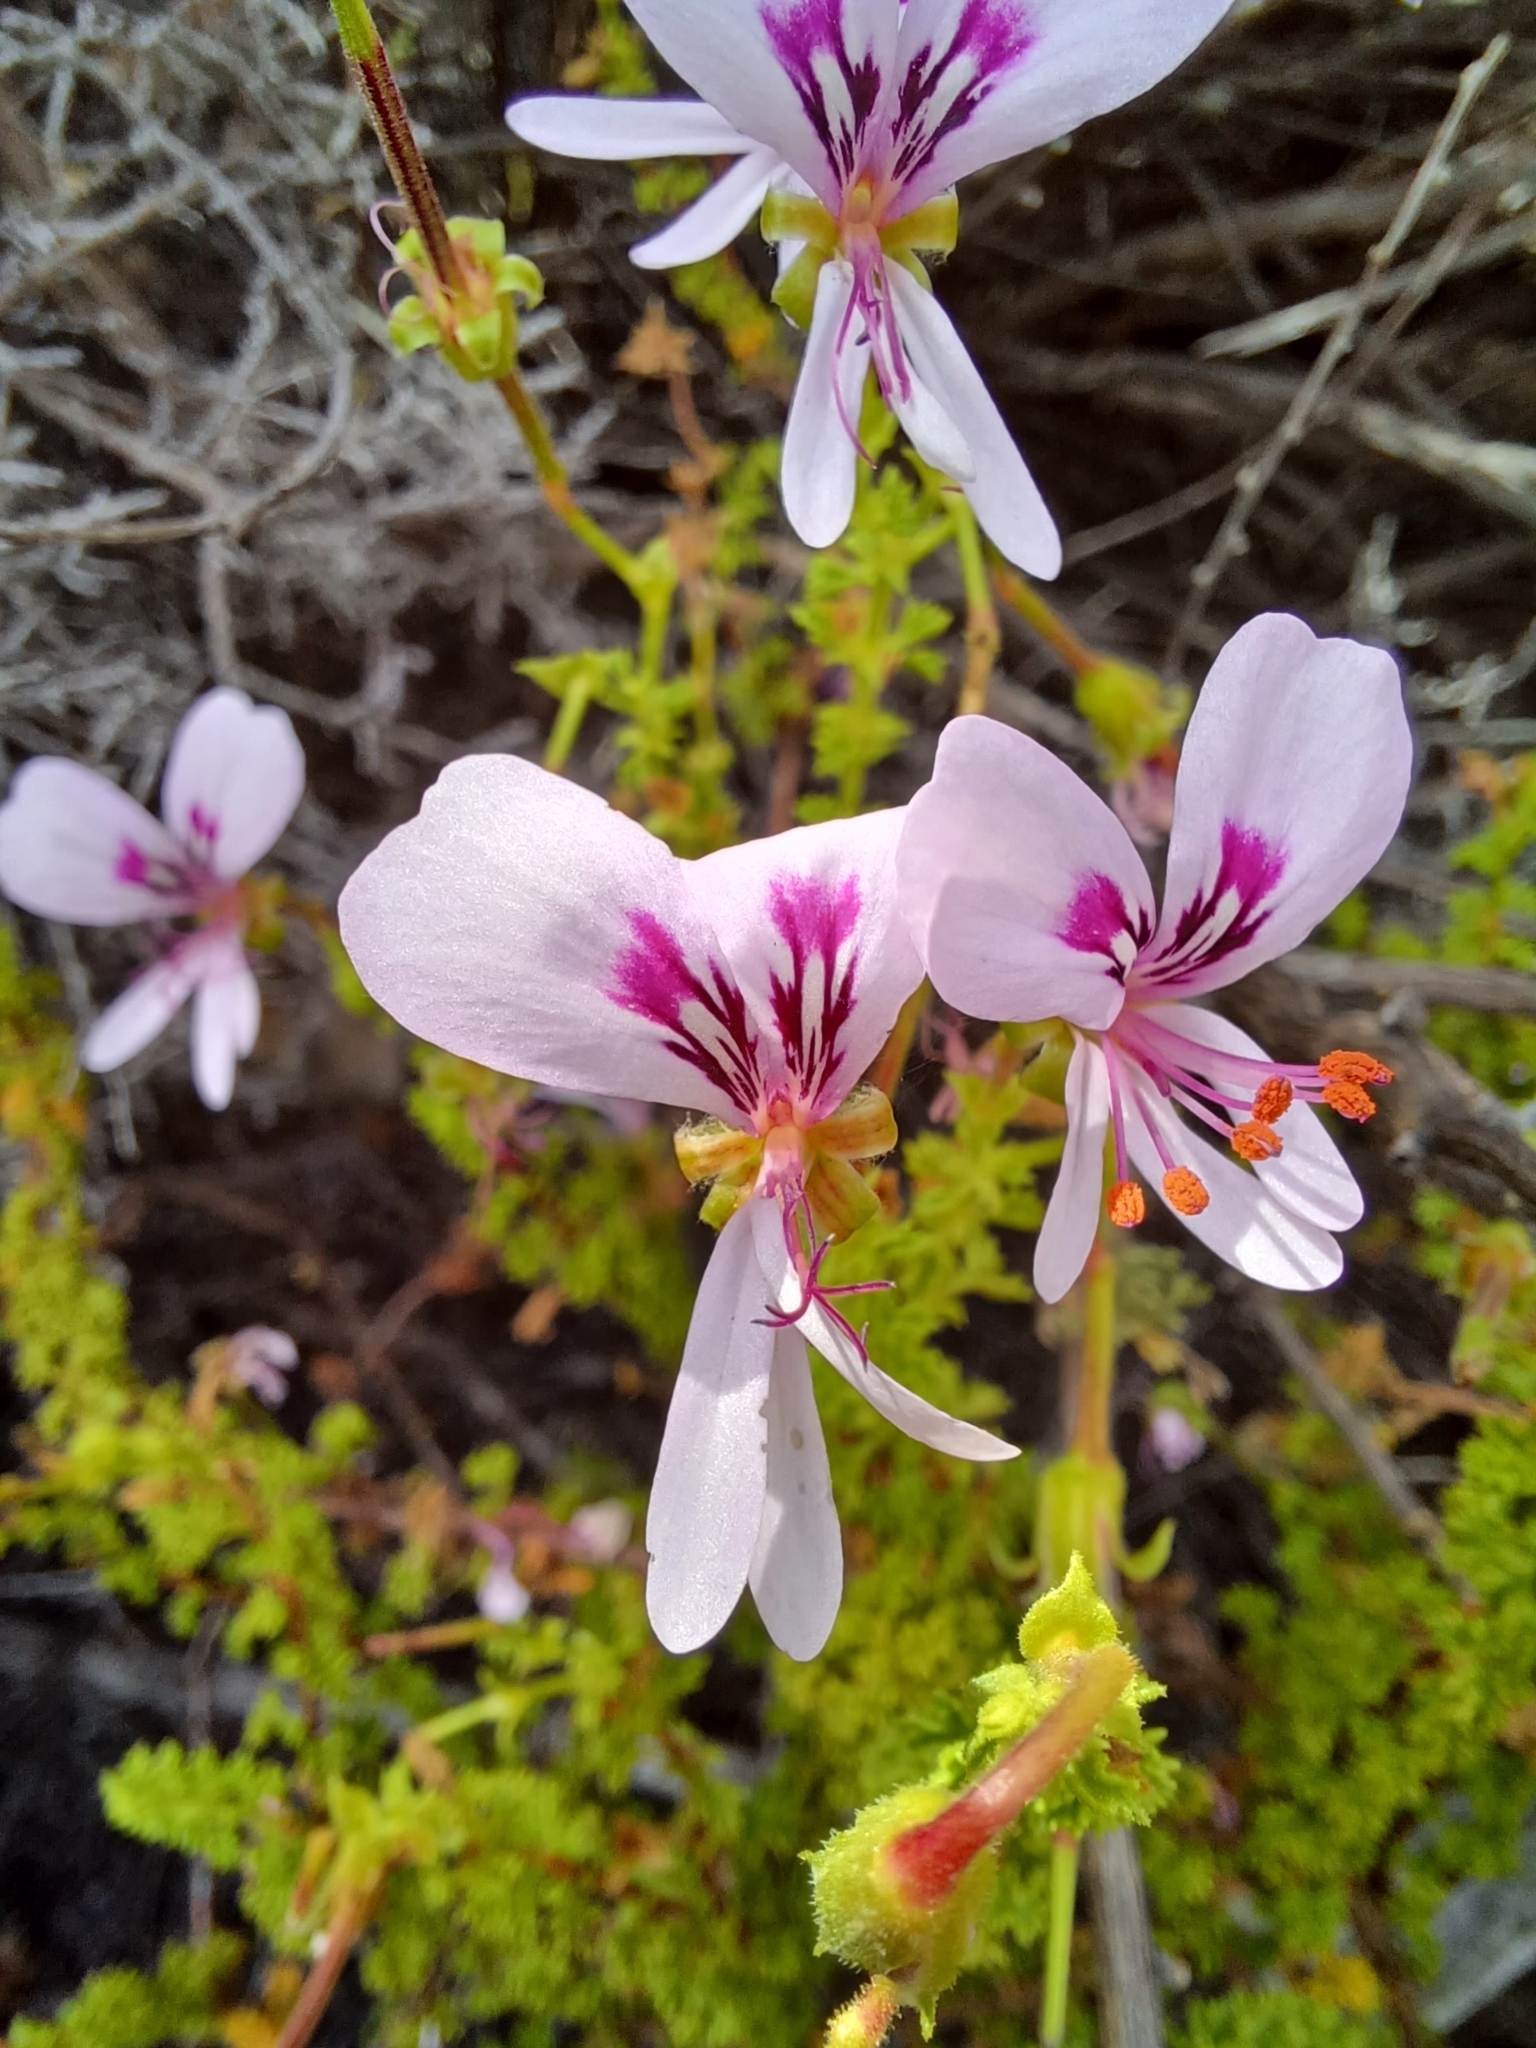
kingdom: Plantae
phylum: Tracheophyta
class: Magnoliopsida
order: Geraniales
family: Geraniaceae
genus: Pelargonium
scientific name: Pelargonium crispum
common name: Crisped-leaf pelargonium
